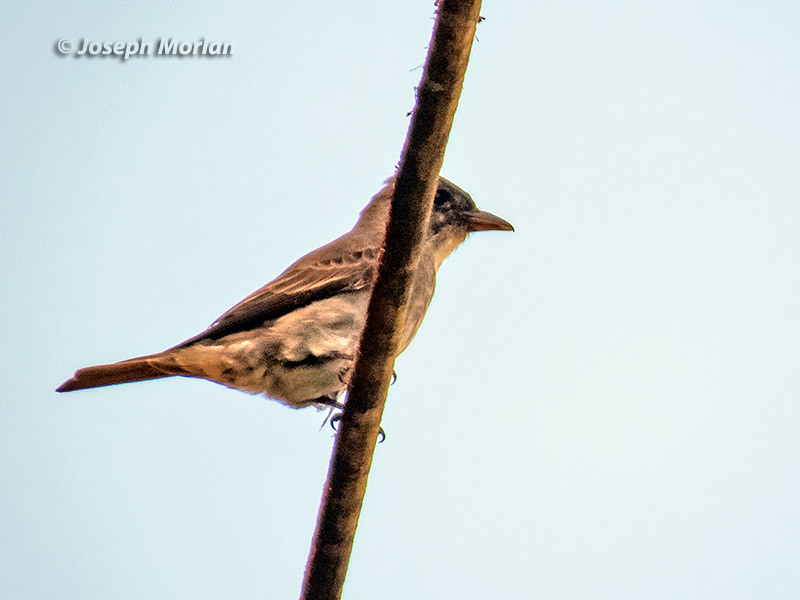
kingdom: Animalia
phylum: Chordata
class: Aves
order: Passeriformes
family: Tyrannidae
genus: Contopus
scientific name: Contopus cooperi
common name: Olive-sided flycatcher
